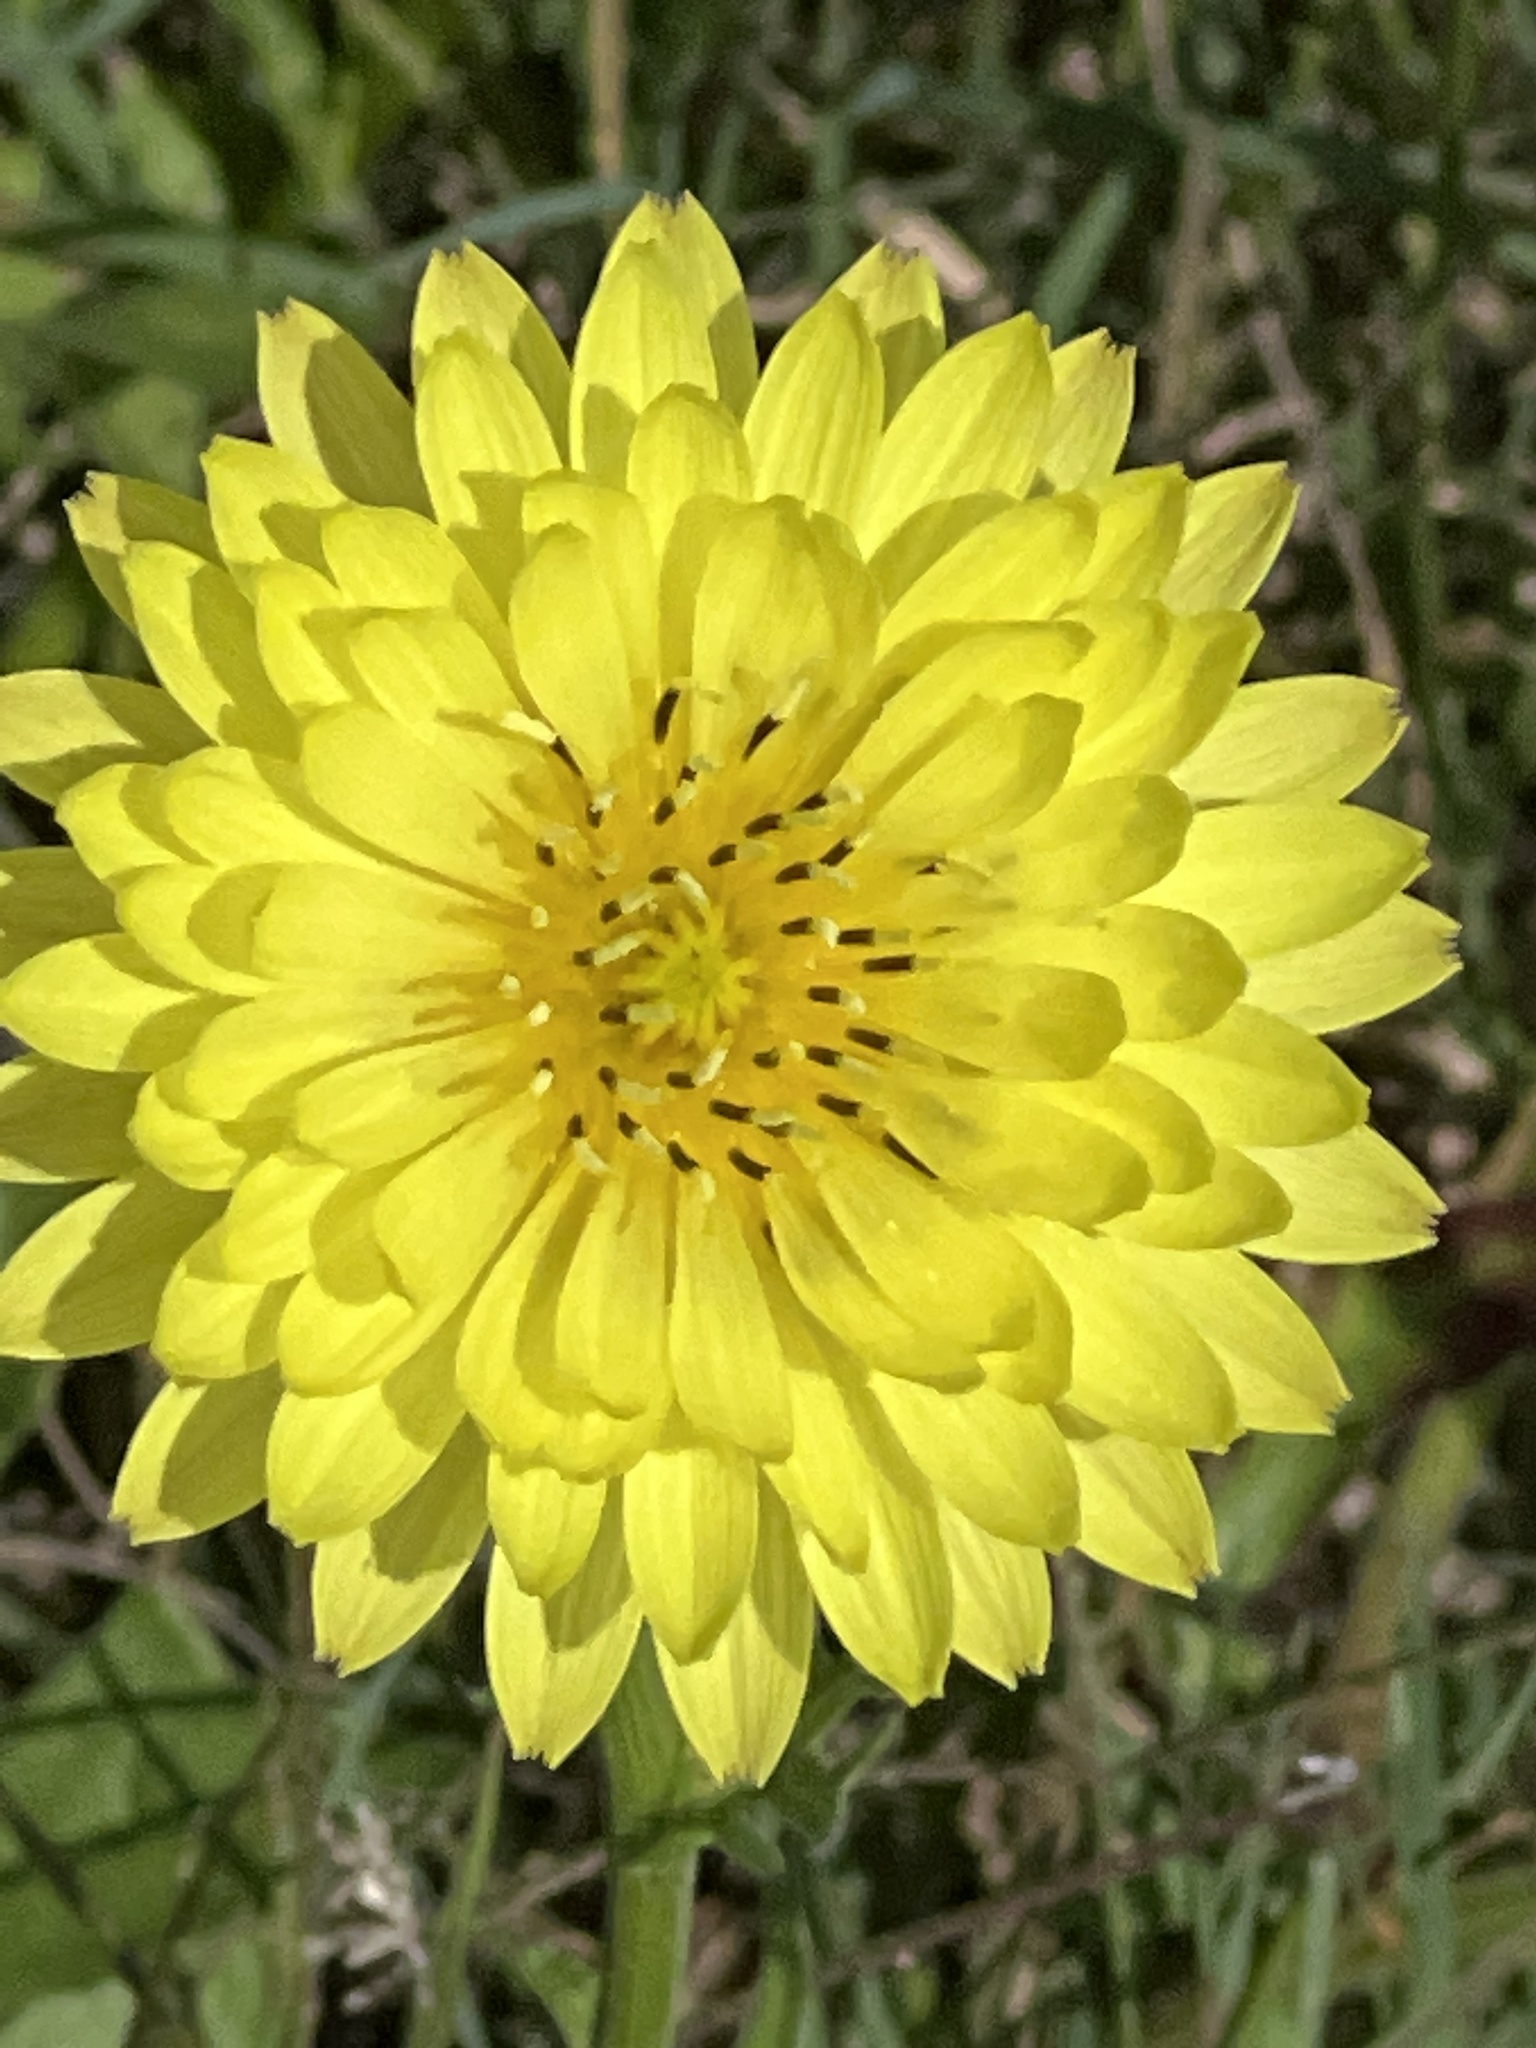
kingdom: Plantae
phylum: Tracheophyta
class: Magnoliopsida
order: Asterales
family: Asteraceae
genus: Pyrrhopappus
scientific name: Pyrrhopappus pauciflorus
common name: Texas false dandelion
